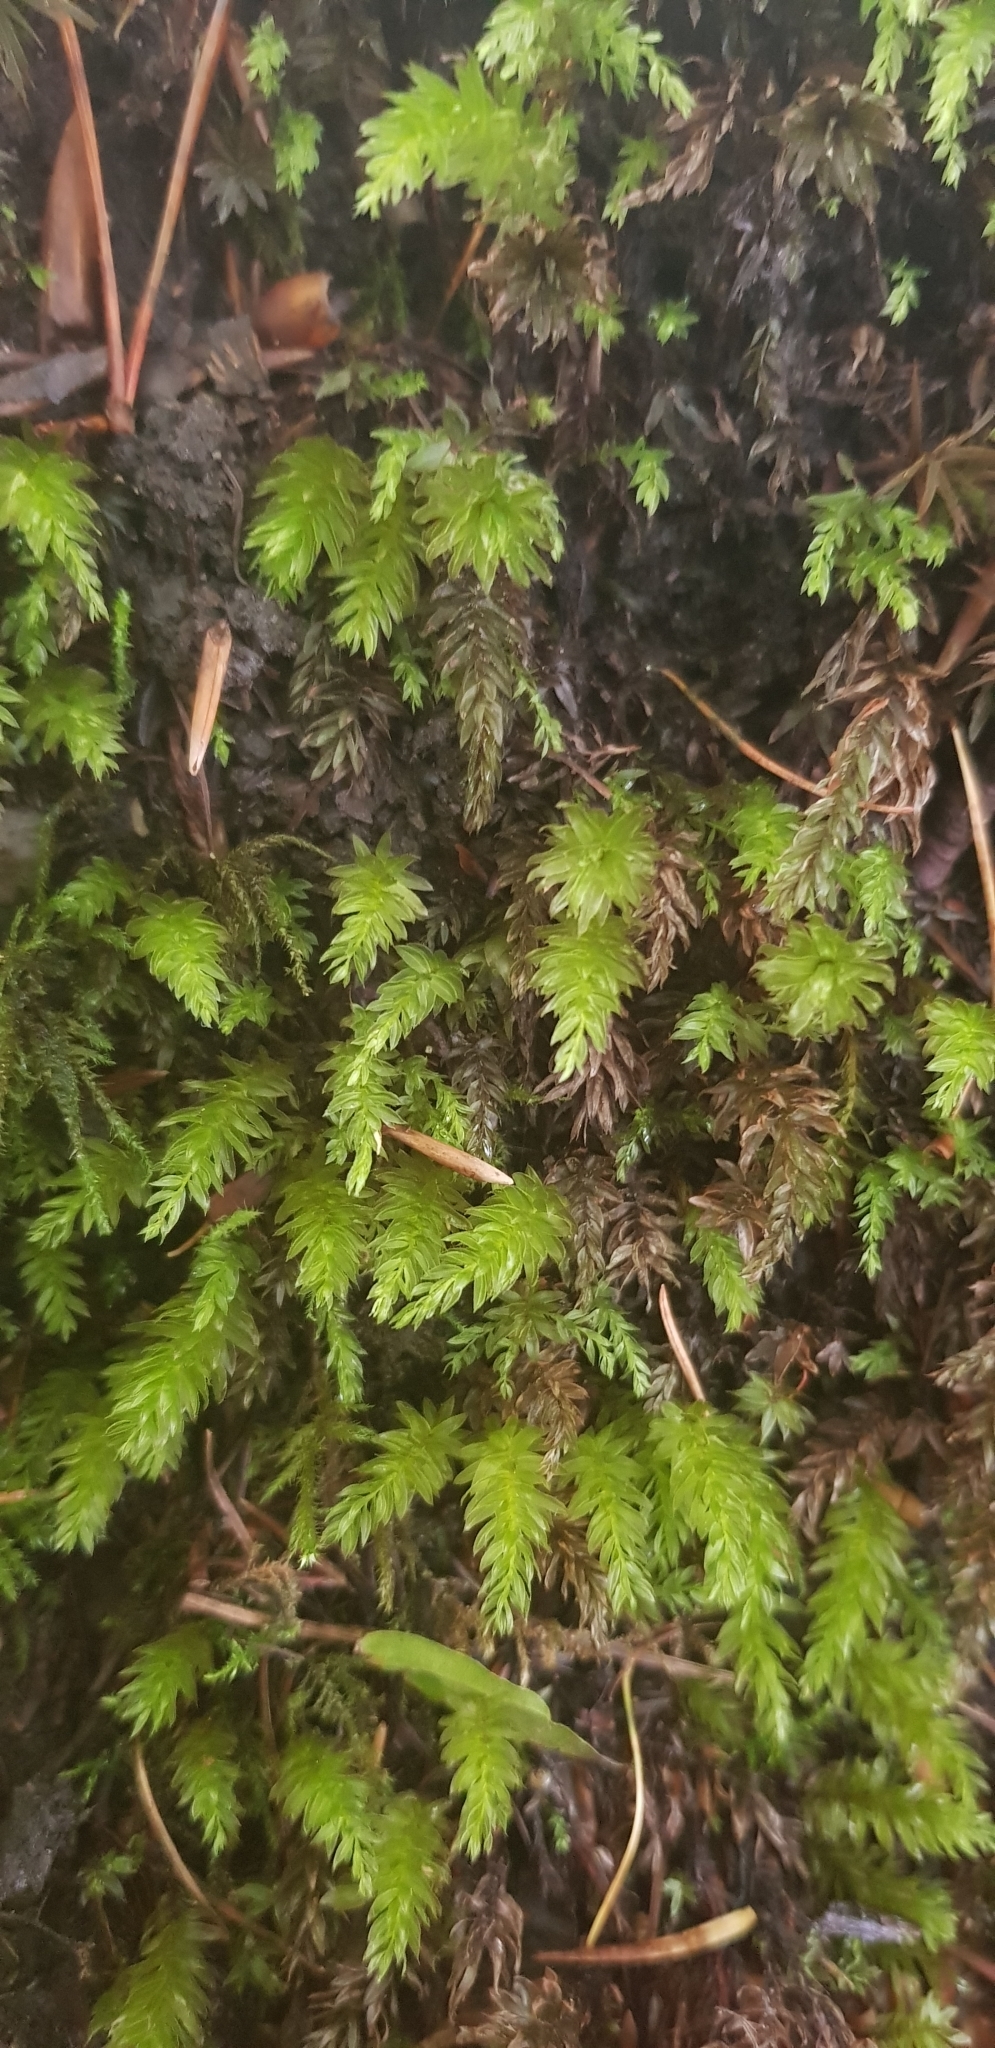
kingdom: Plantae
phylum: Bryophyta
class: Bryopsida
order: Bryales
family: Mniaceae
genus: Mnium
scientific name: Mnium hornum
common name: Swan's-neck leafy moss
